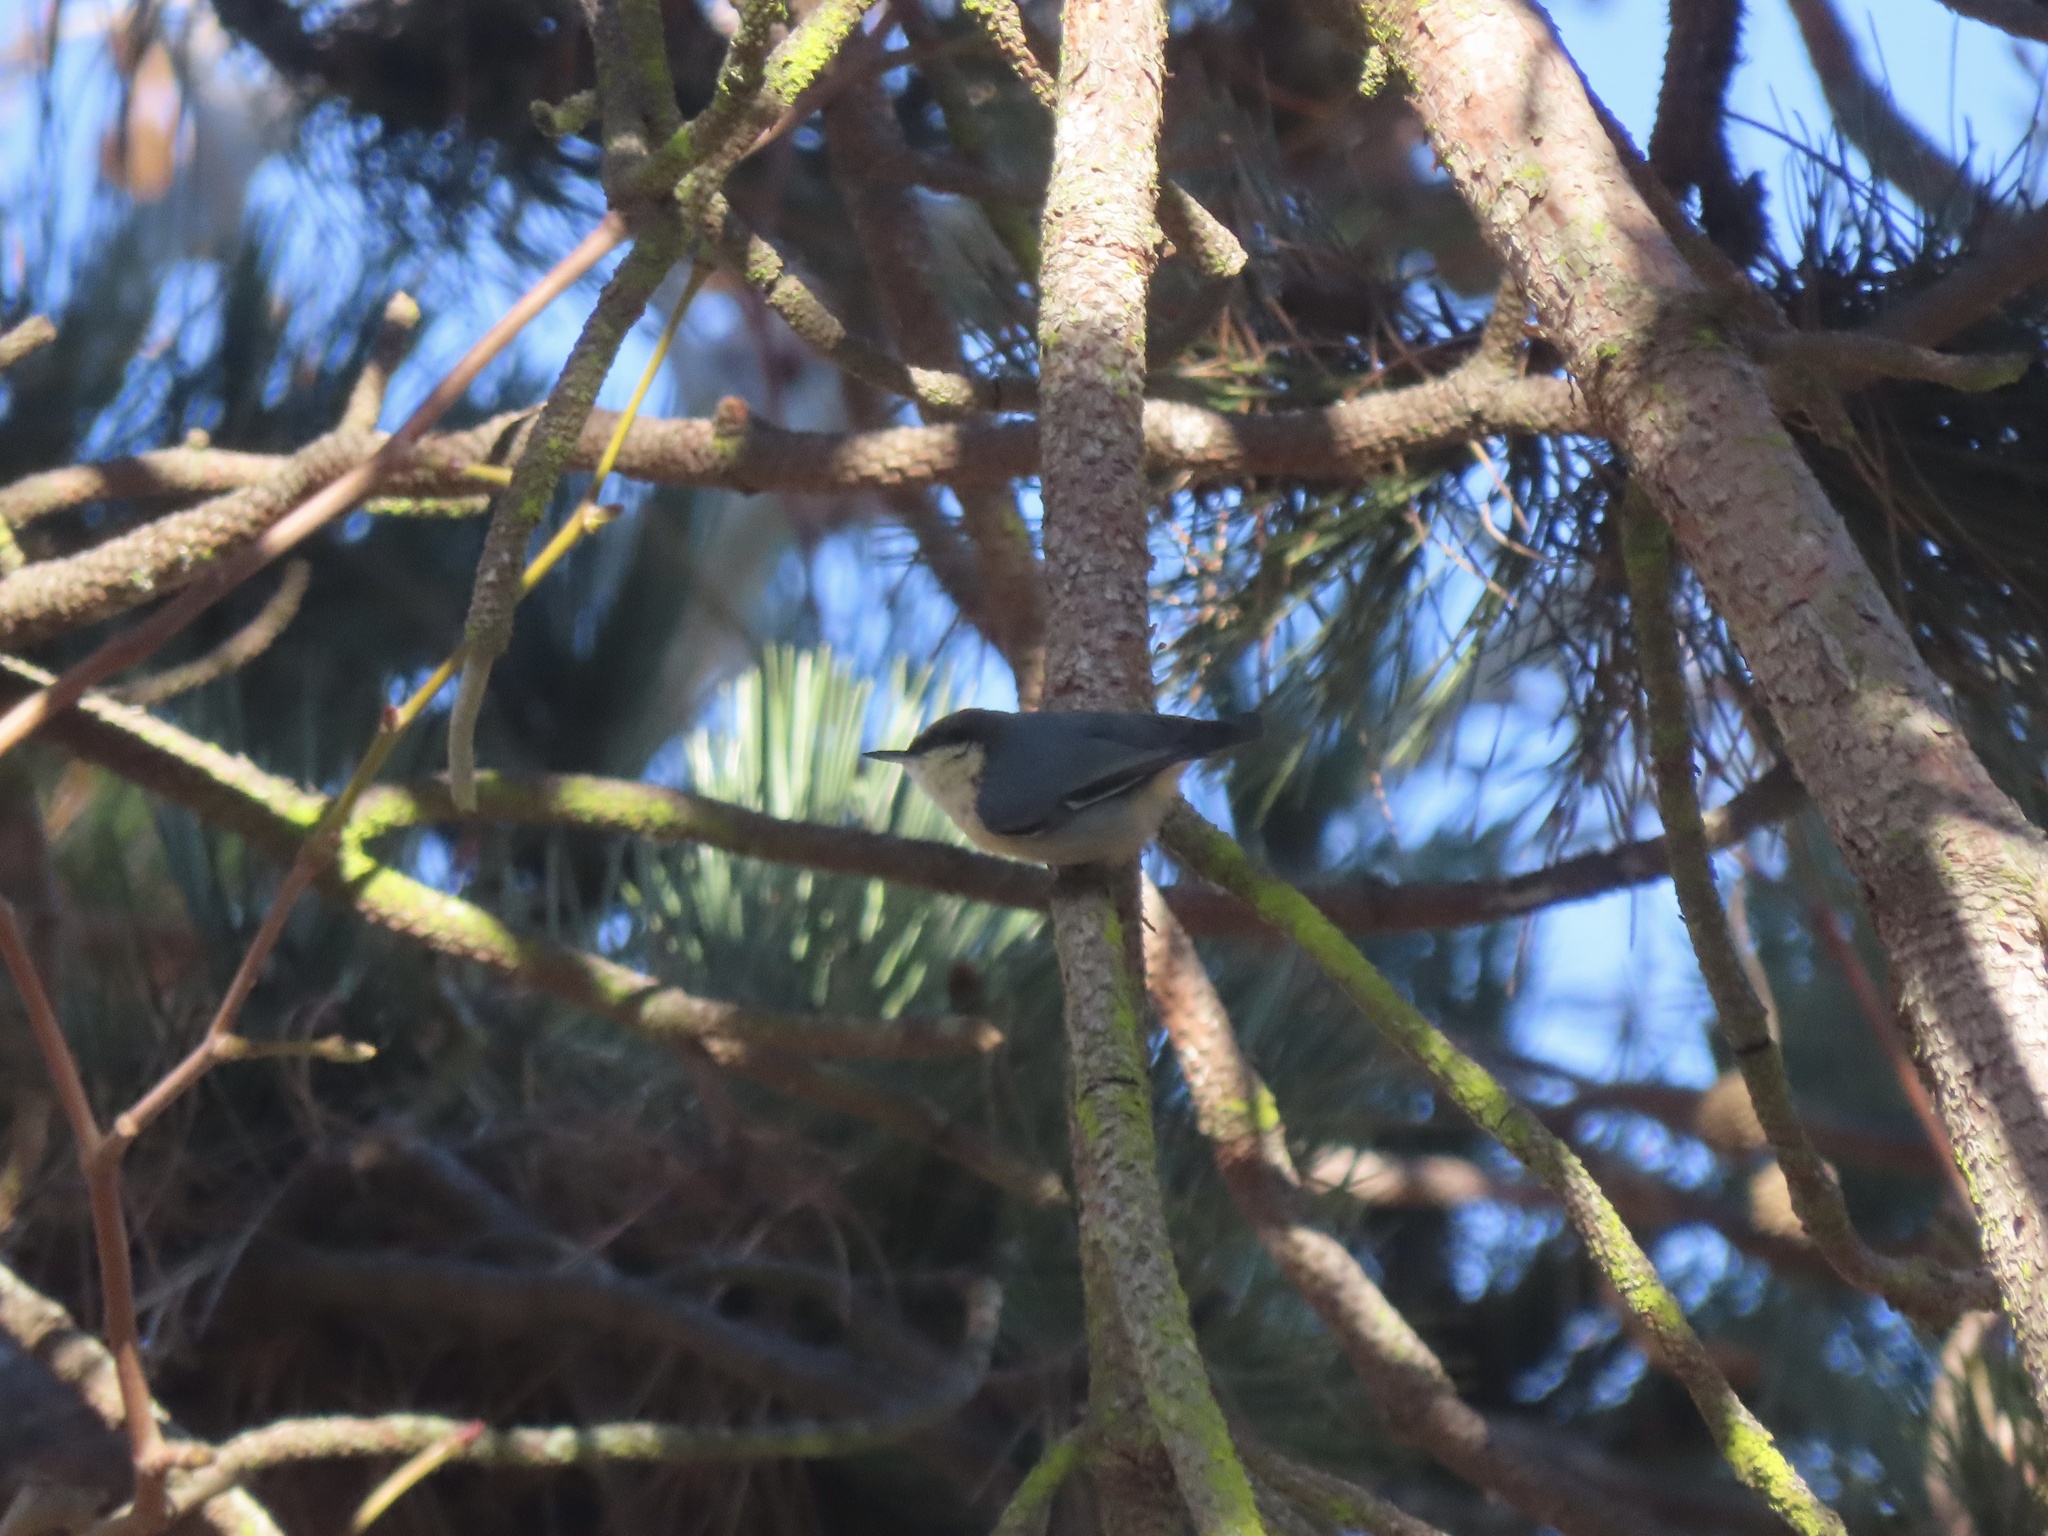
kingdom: Animalia
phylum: Chordata
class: Aves
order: Passeriformes
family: Sittidae
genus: Sitta
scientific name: Sitta pygmaea
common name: Pygmy nuthatch
